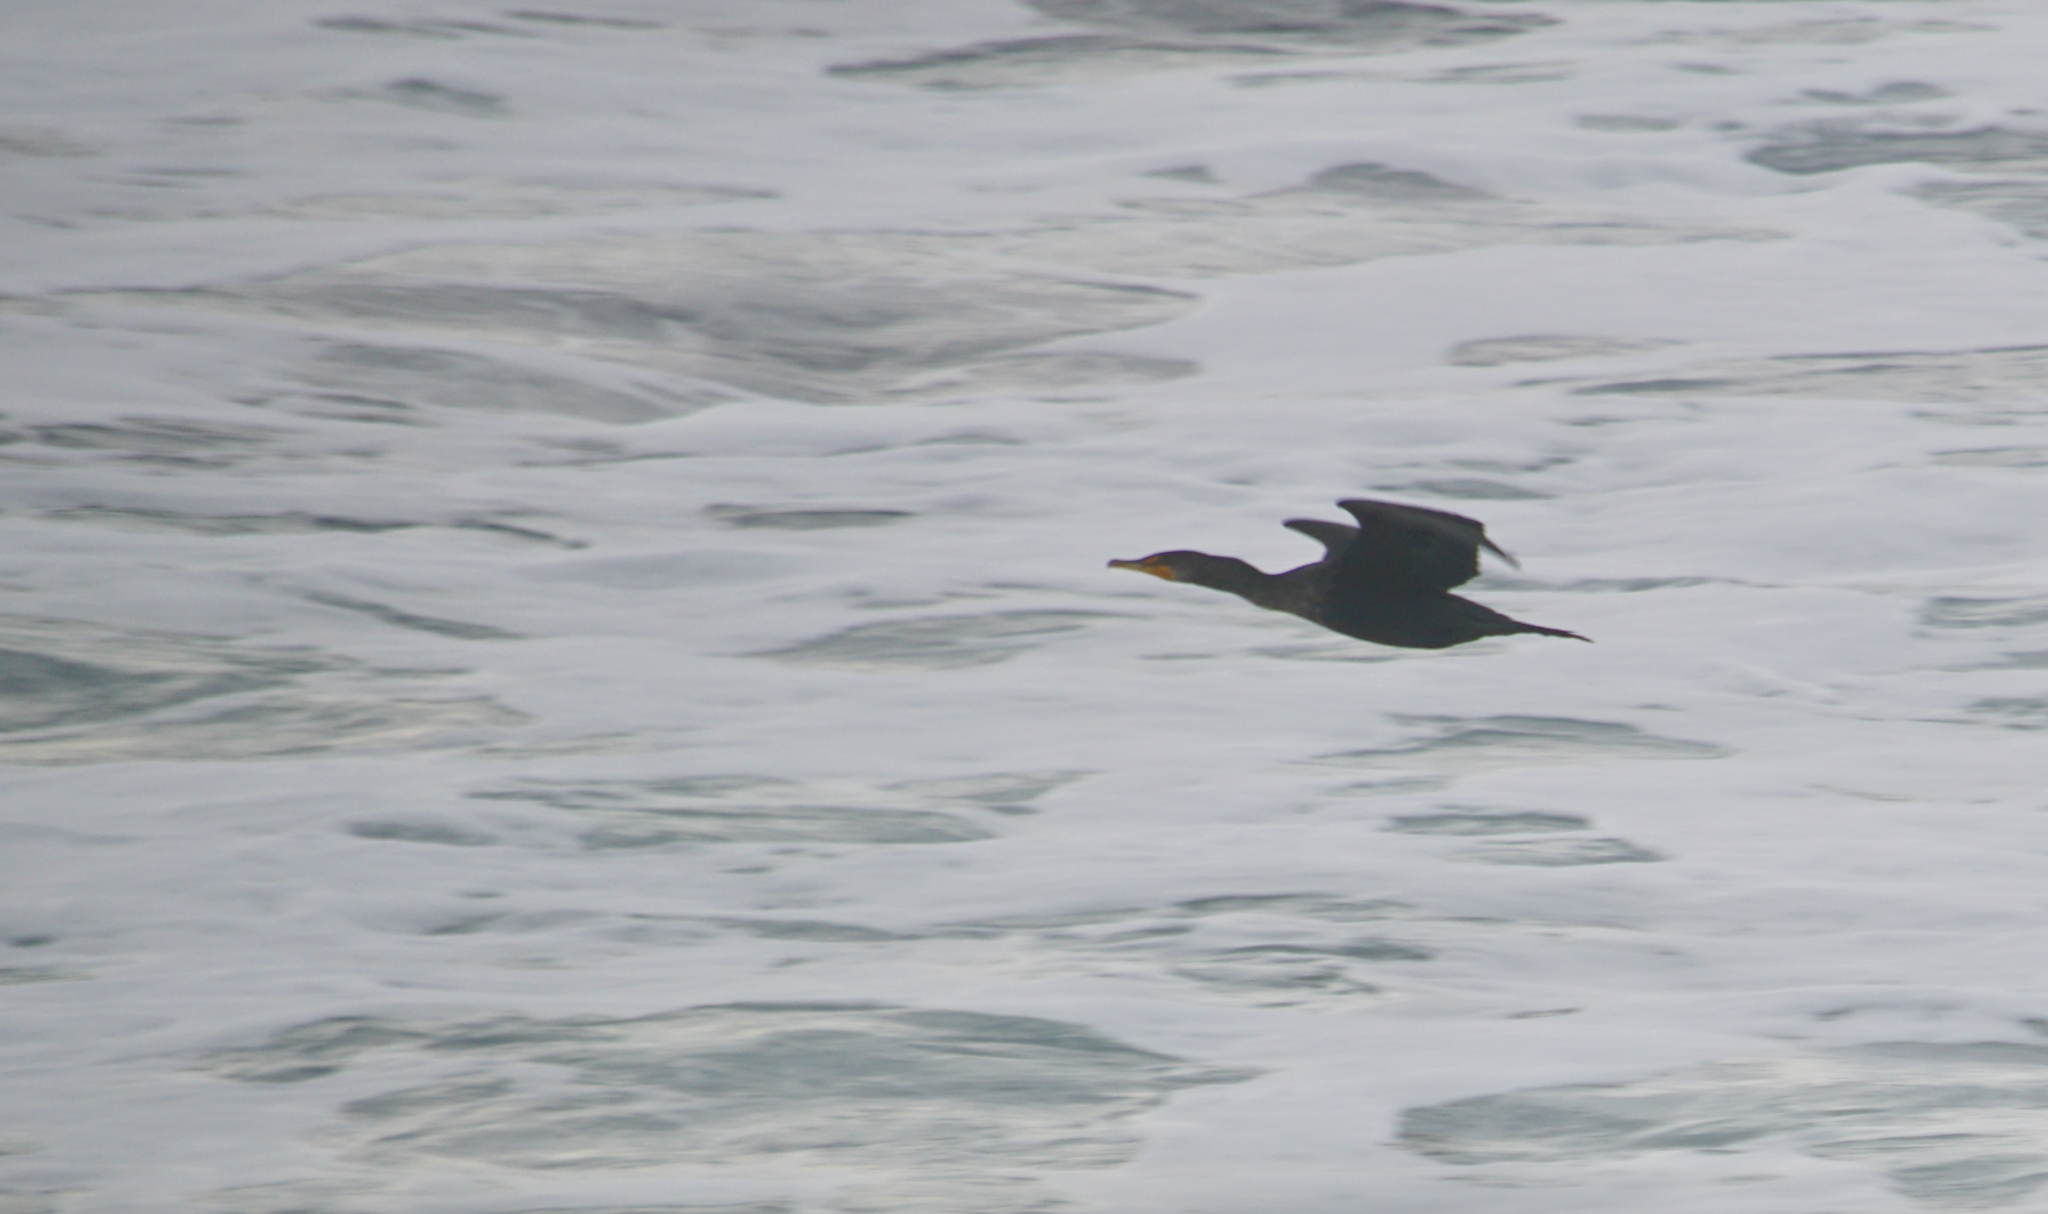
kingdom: Animalia
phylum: Chordata
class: Aves
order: Suliformes
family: Phalacrocoracidae
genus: Phalacrocorax
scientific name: Phalacrocorax auritus
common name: Double-crested cormorant
